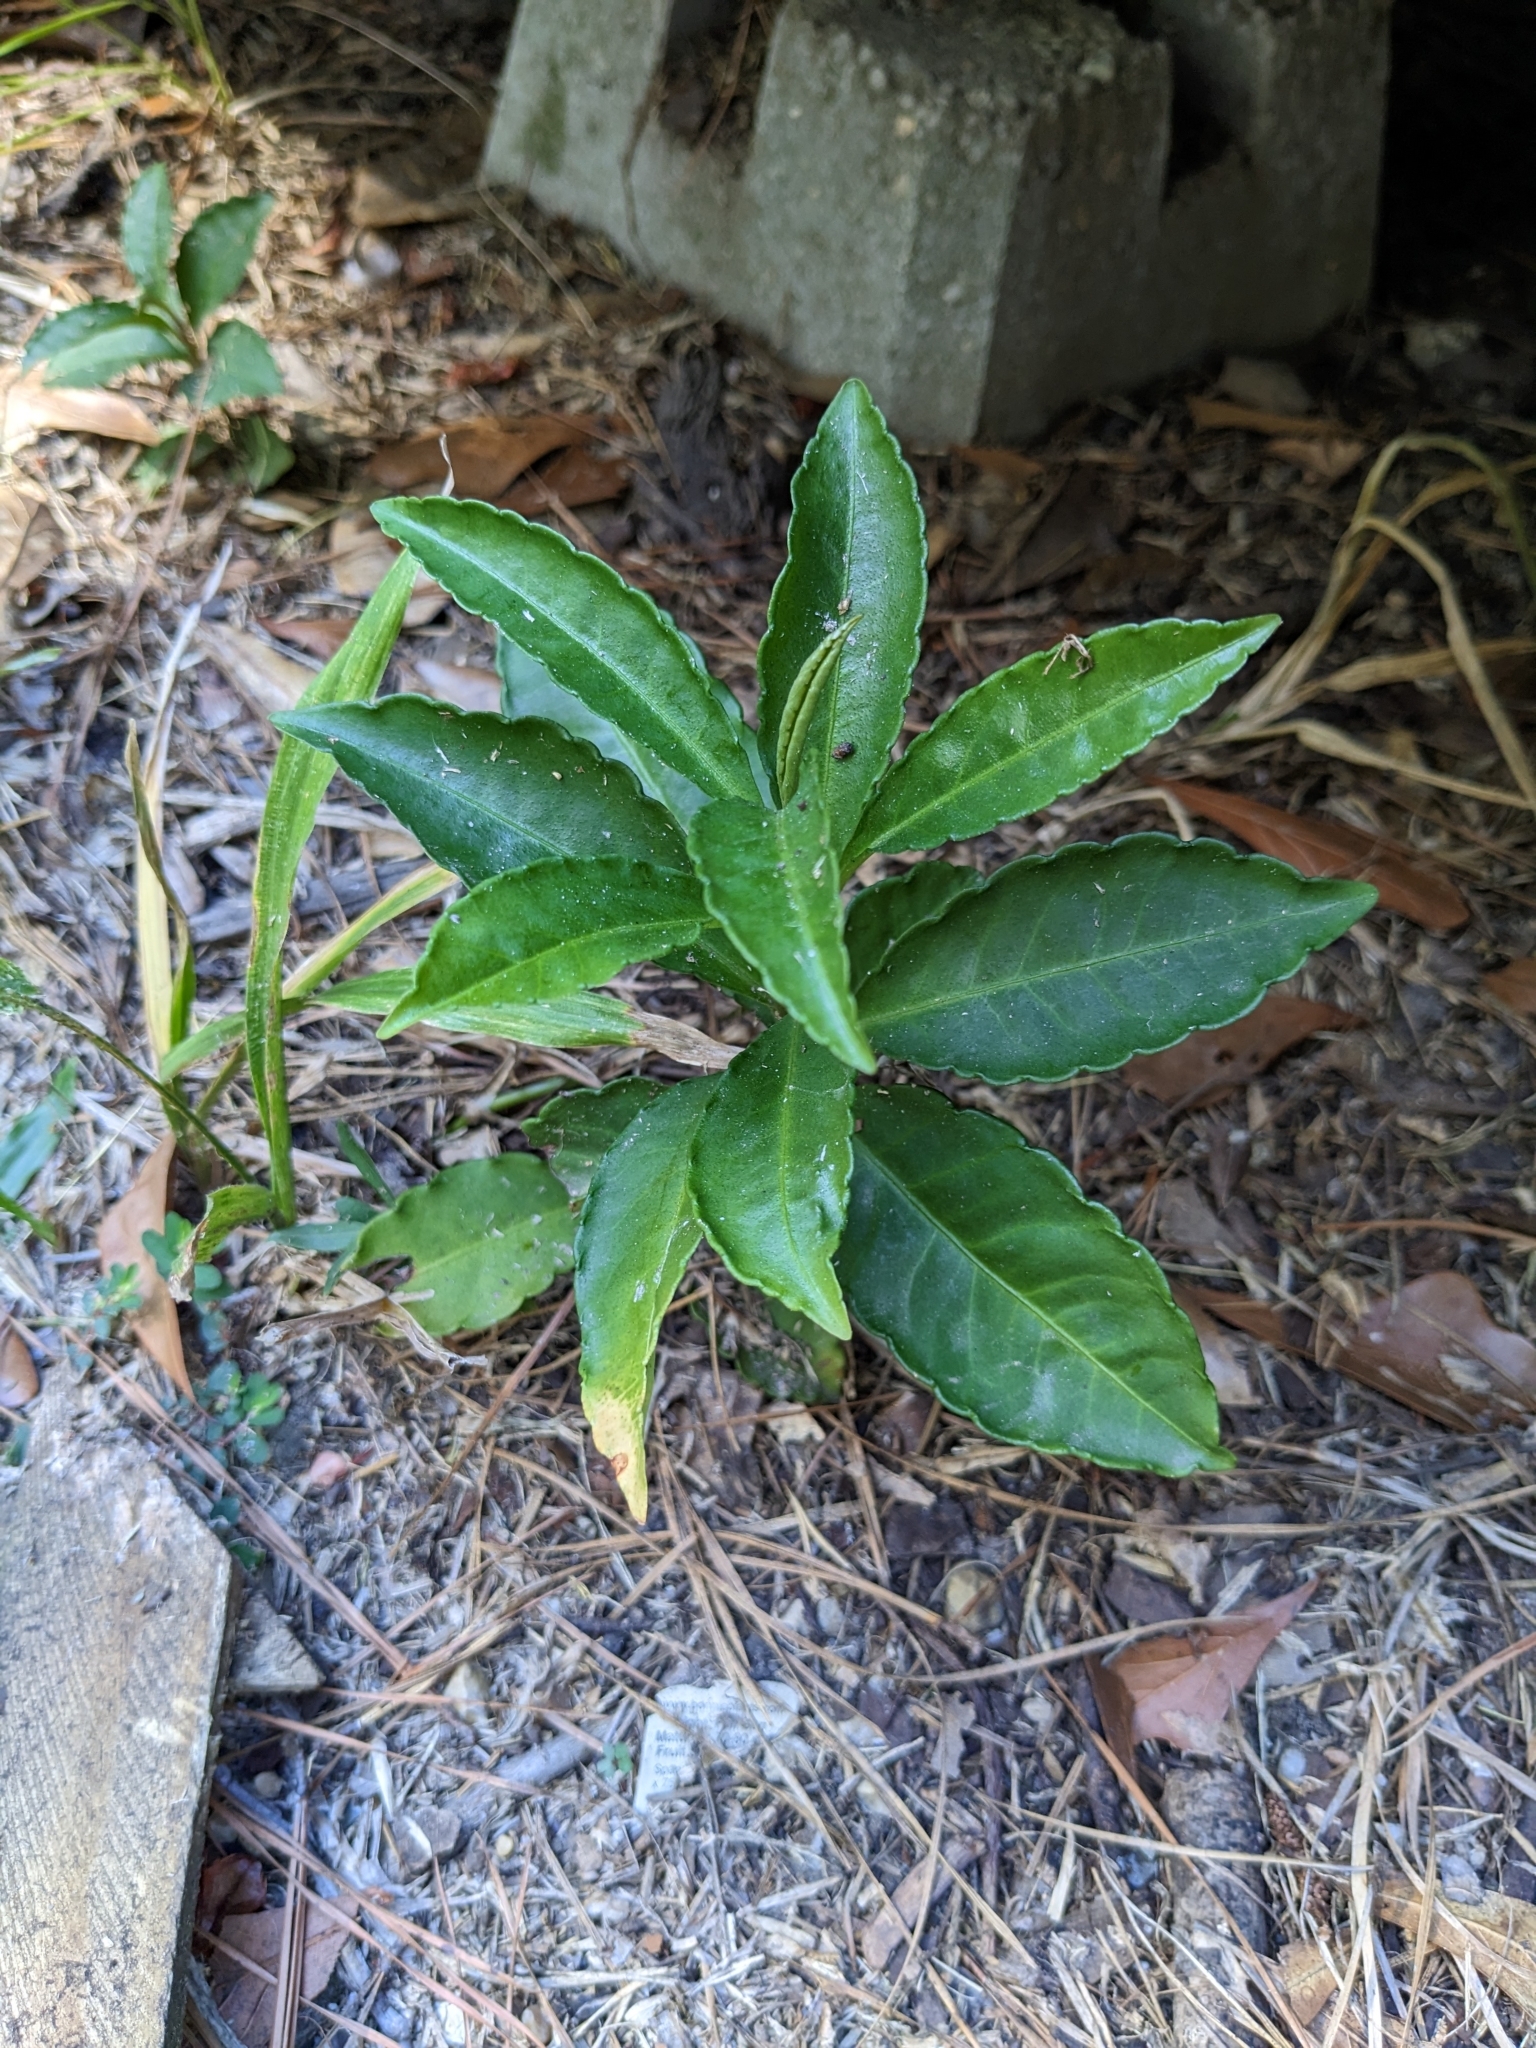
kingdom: Plantae
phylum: Tracheophyta
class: Magnoliopsida
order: Ericales
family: Primulaceae
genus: Ardisia
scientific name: Ardisia crenata
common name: Hen's eyes
